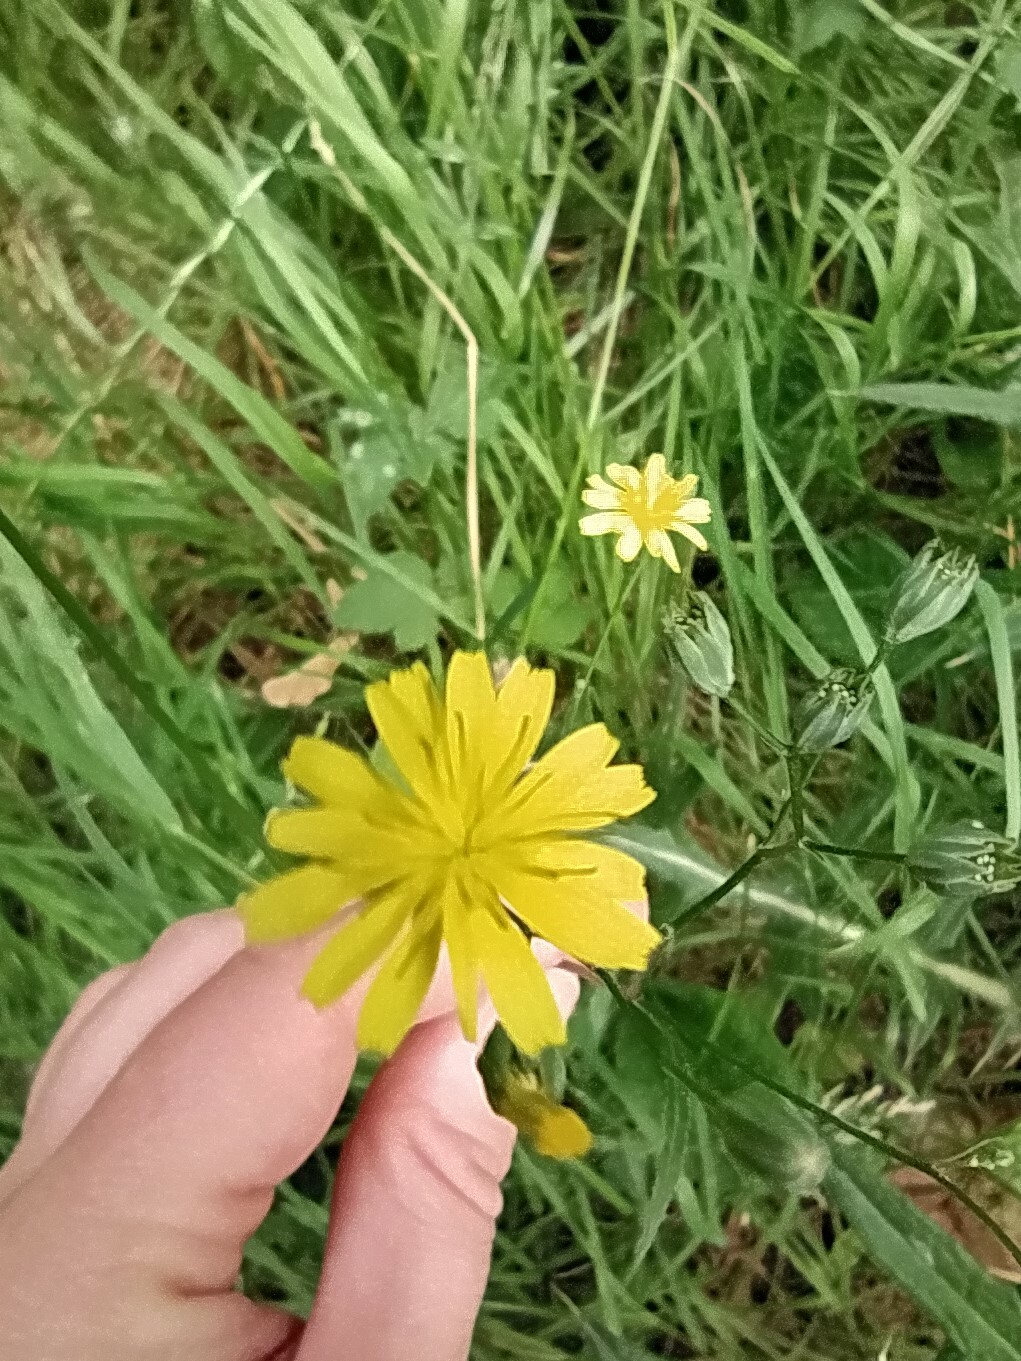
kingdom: Plantae
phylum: Tracheophyta
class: Magnoliopsida
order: Asterales
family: Asteraceae
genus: Lapsana
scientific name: Lapsana communis
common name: Nipplewort
